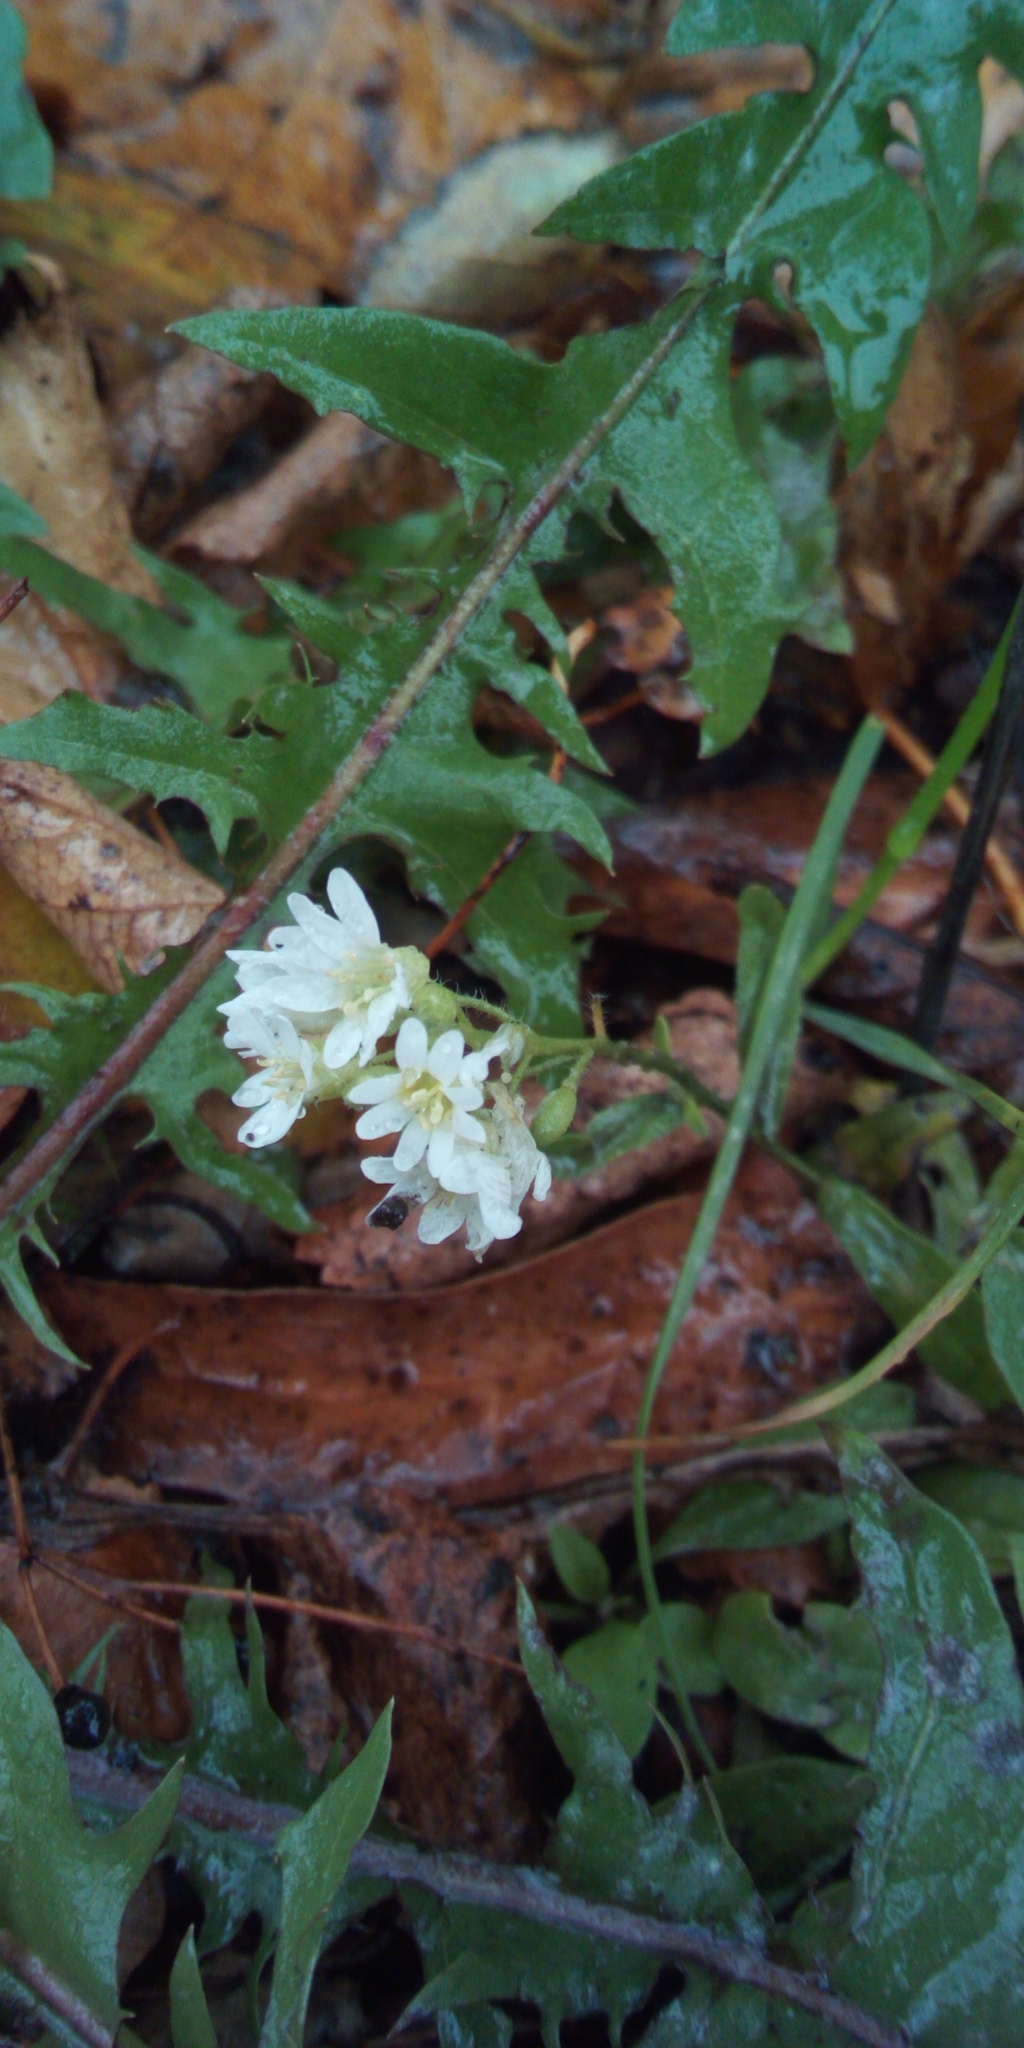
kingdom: Plantae
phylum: Tracheophyta
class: Magnoliopsida
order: Brassicales
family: Brassicaceae
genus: Berteroa
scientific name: Berteroa incana
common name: Hoary alison
